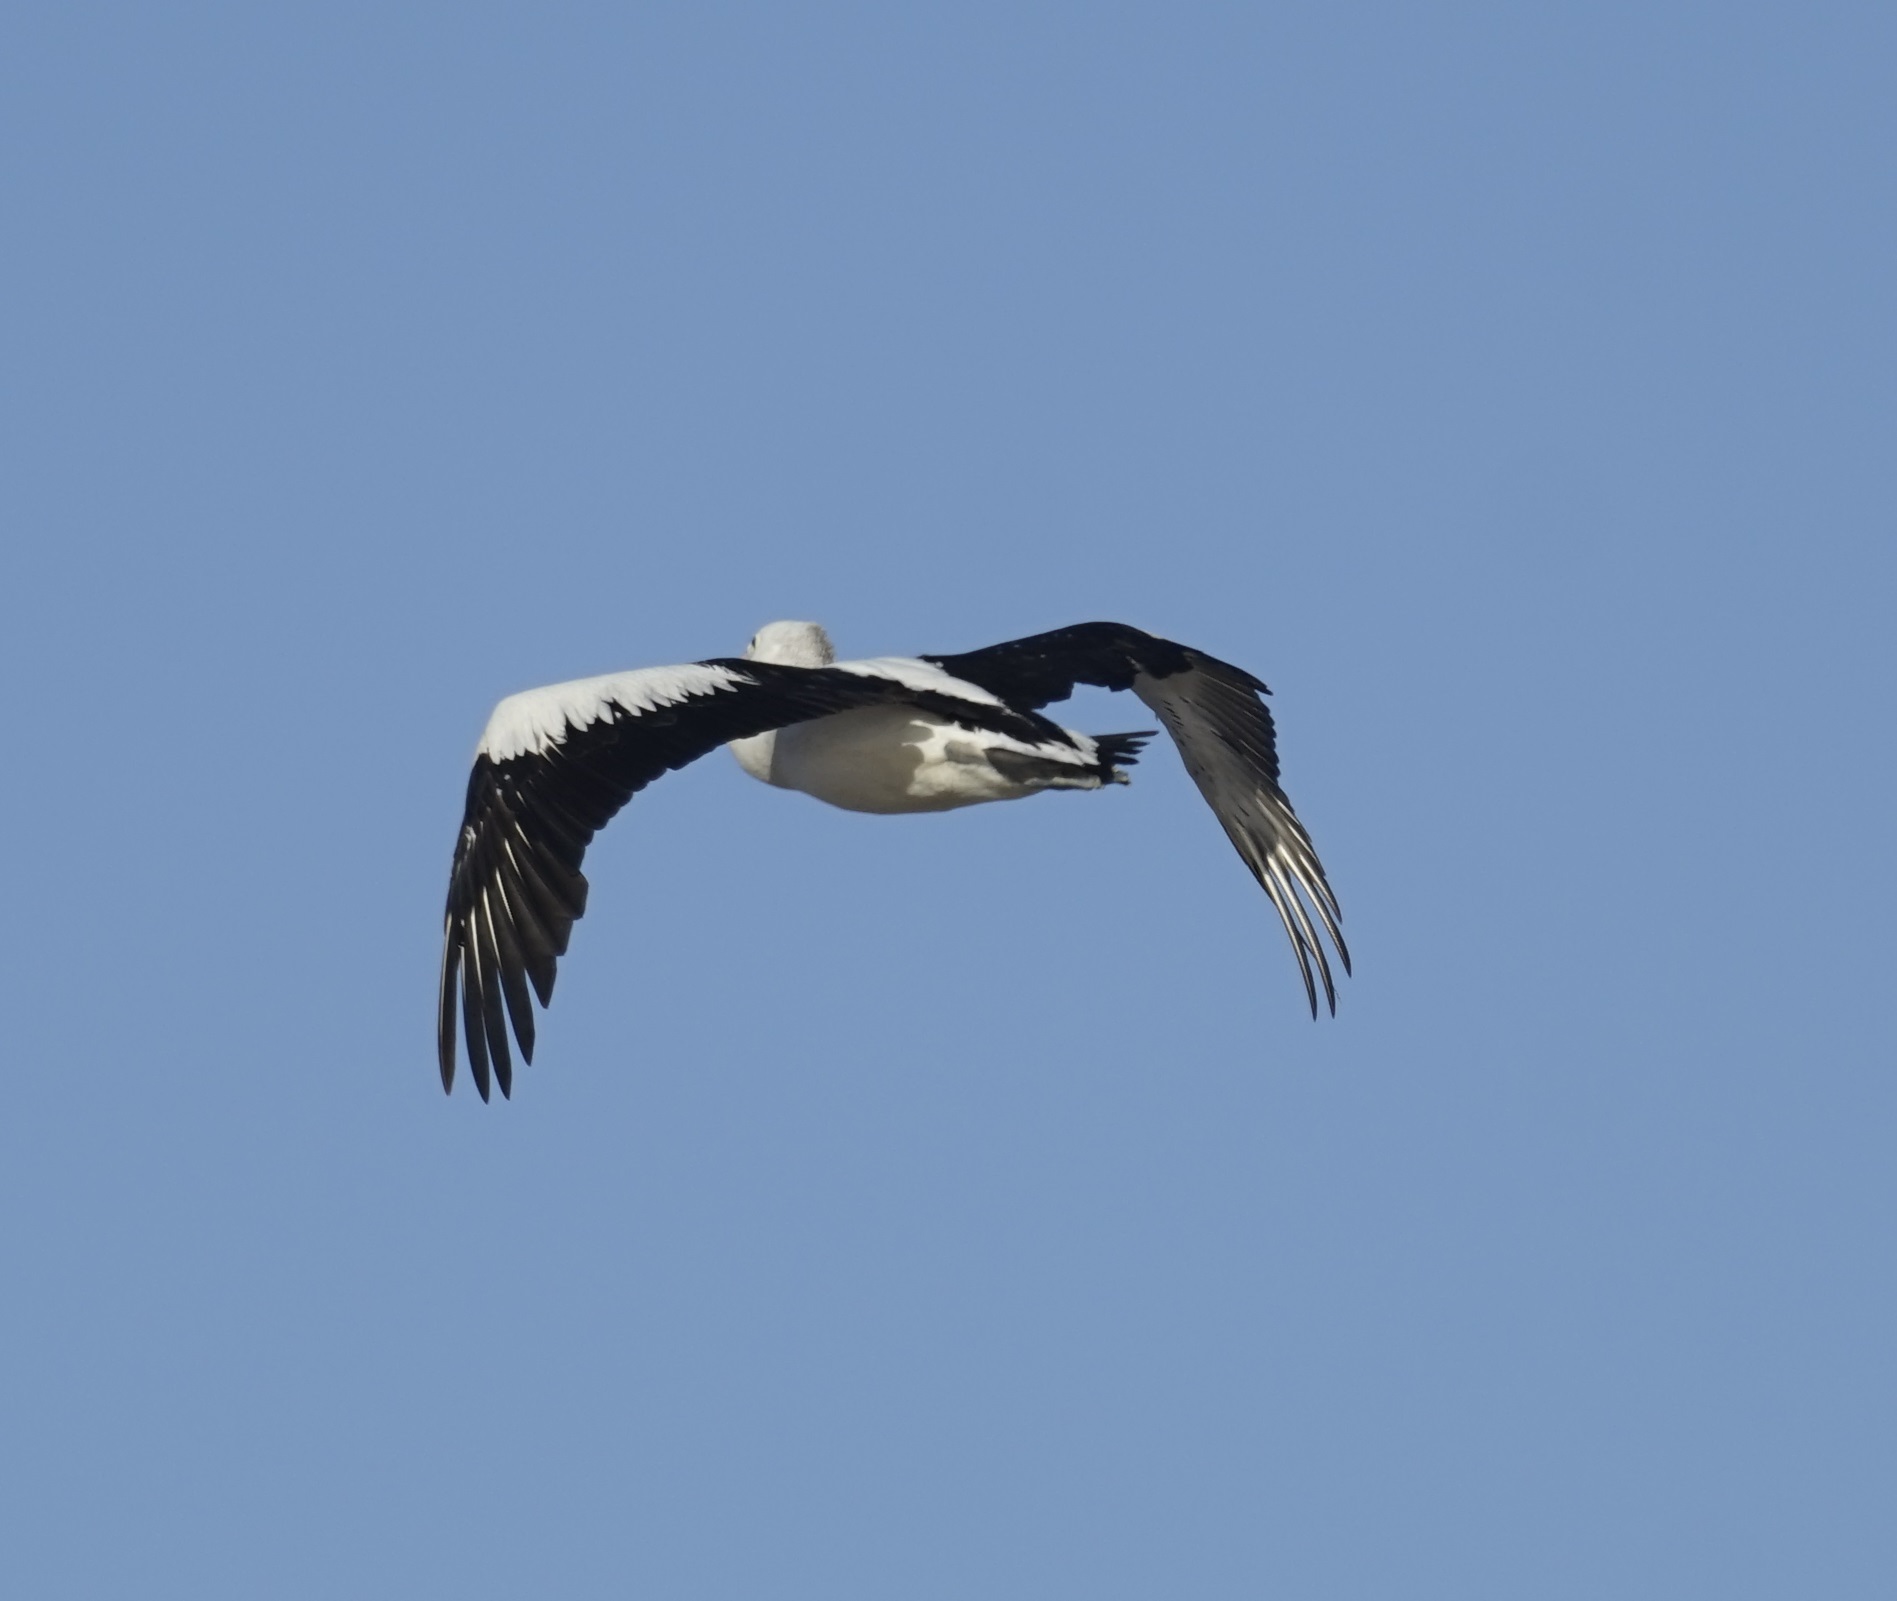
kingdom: Animalia
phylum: Chordata
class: Aves
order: Pelecaniformes
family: Pelecanidae
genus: Pelecanus
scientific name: Pelecanus conspicillatus
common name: Australian pelican
